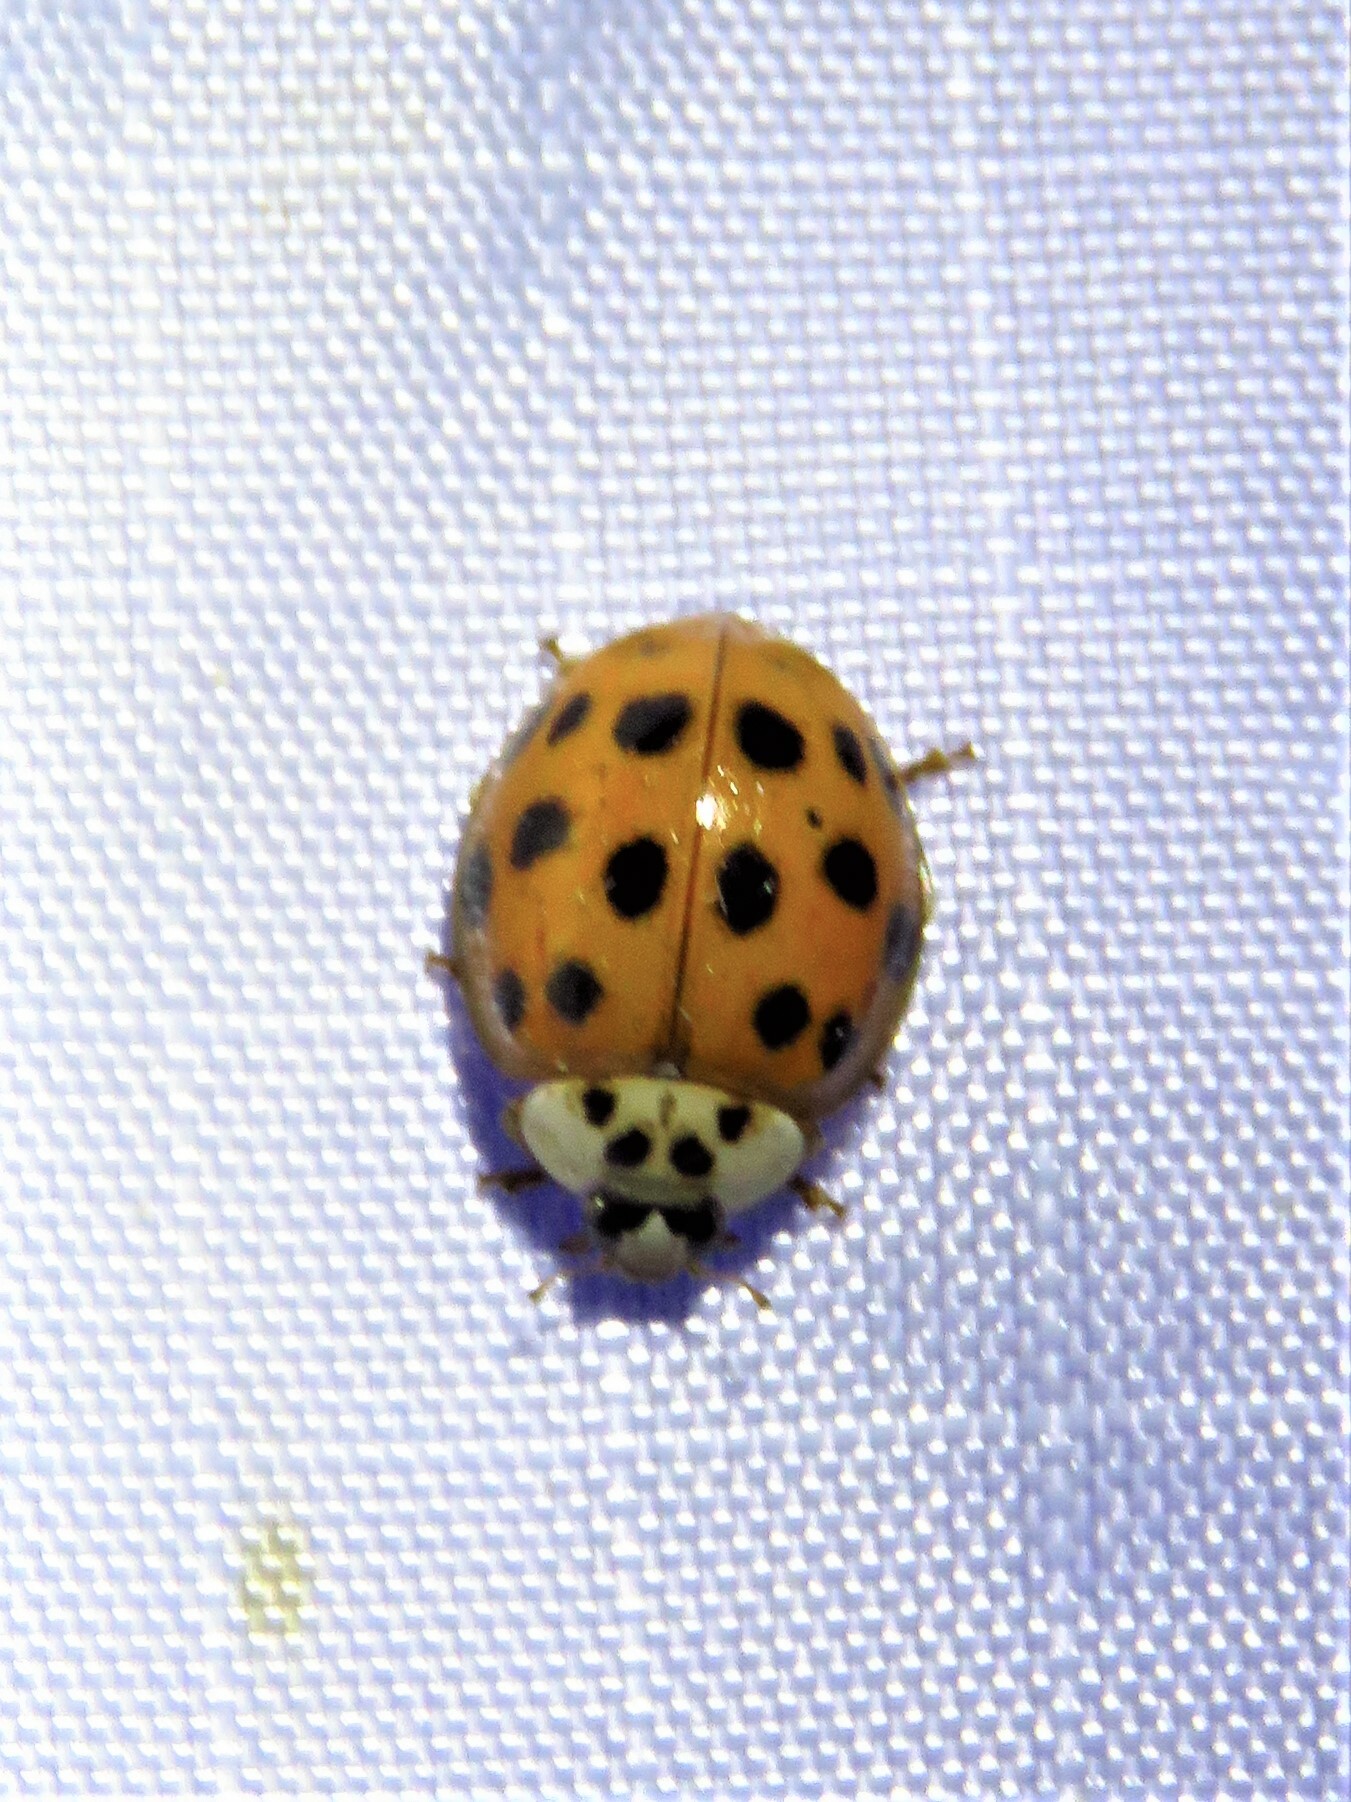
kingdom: Animalia
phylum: Arthropoda
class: Insecta
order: Coleoptera
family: Coccinellidae
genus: Harmonia
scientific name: Harmonia axyridis
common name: Harlequin ladybird
